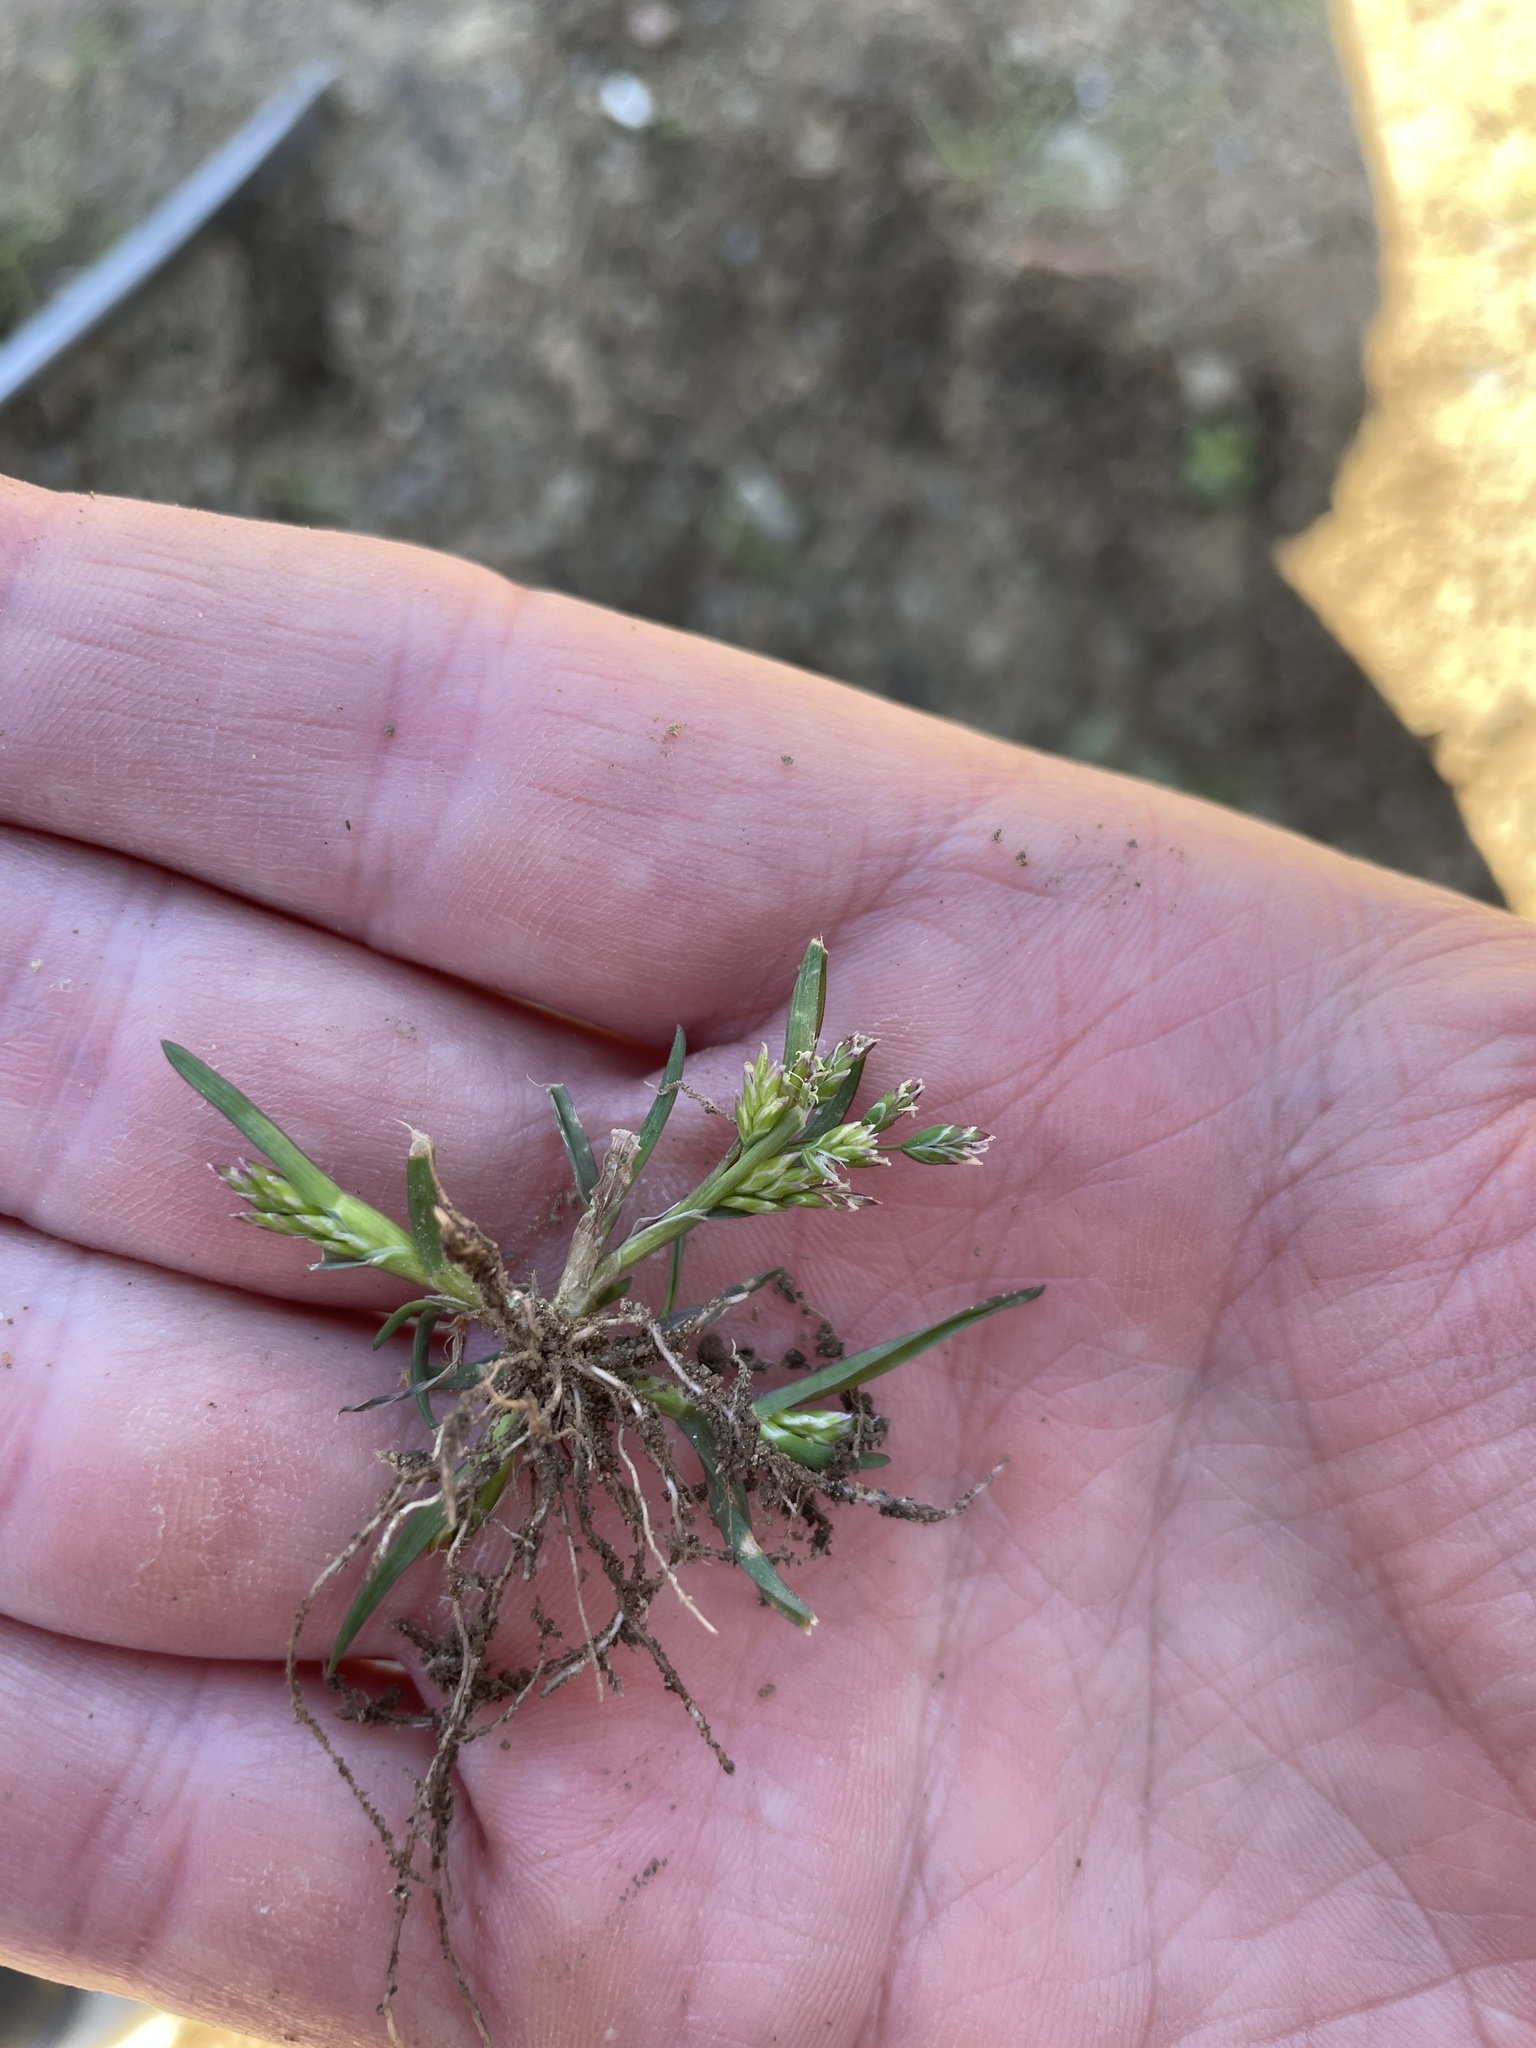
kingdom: Plantae
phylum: Tracheophyta
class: Liliopsida
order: Poales
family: Poaceae
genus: Poa
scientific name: Poa annua
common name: Annual bluegrass
